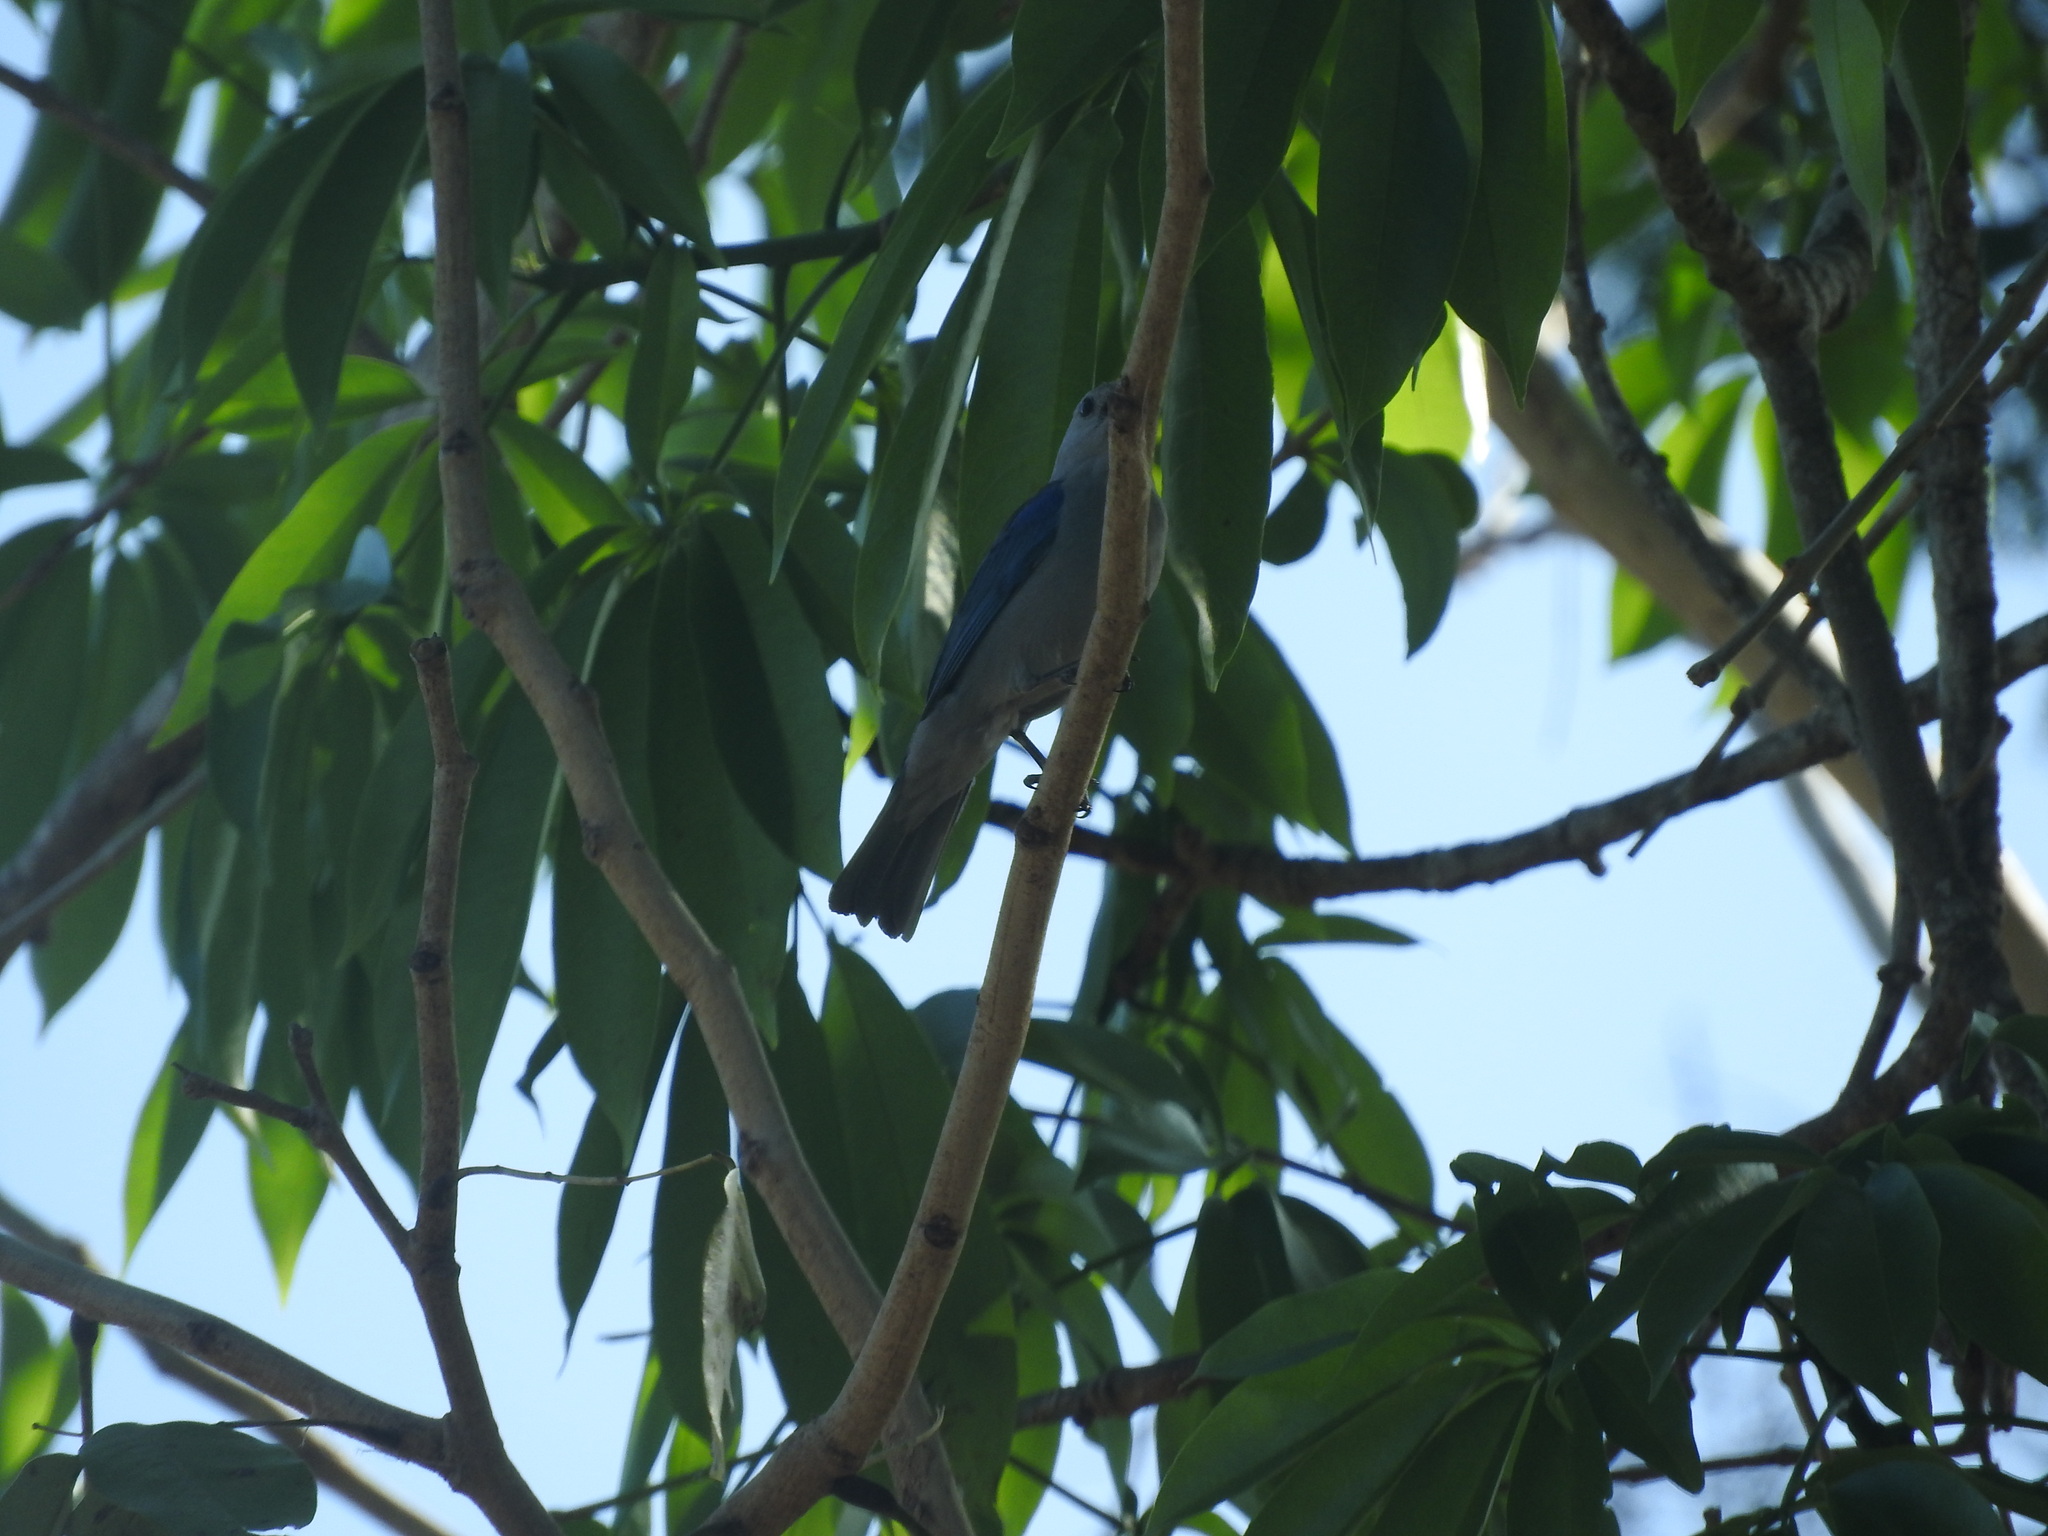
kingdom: Animalia
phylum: Chordata
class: Aves
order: Passeriformes
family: Thraupidae
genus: Thraupis
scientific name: Thraupis episcopus
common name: Blue-grey tanager
